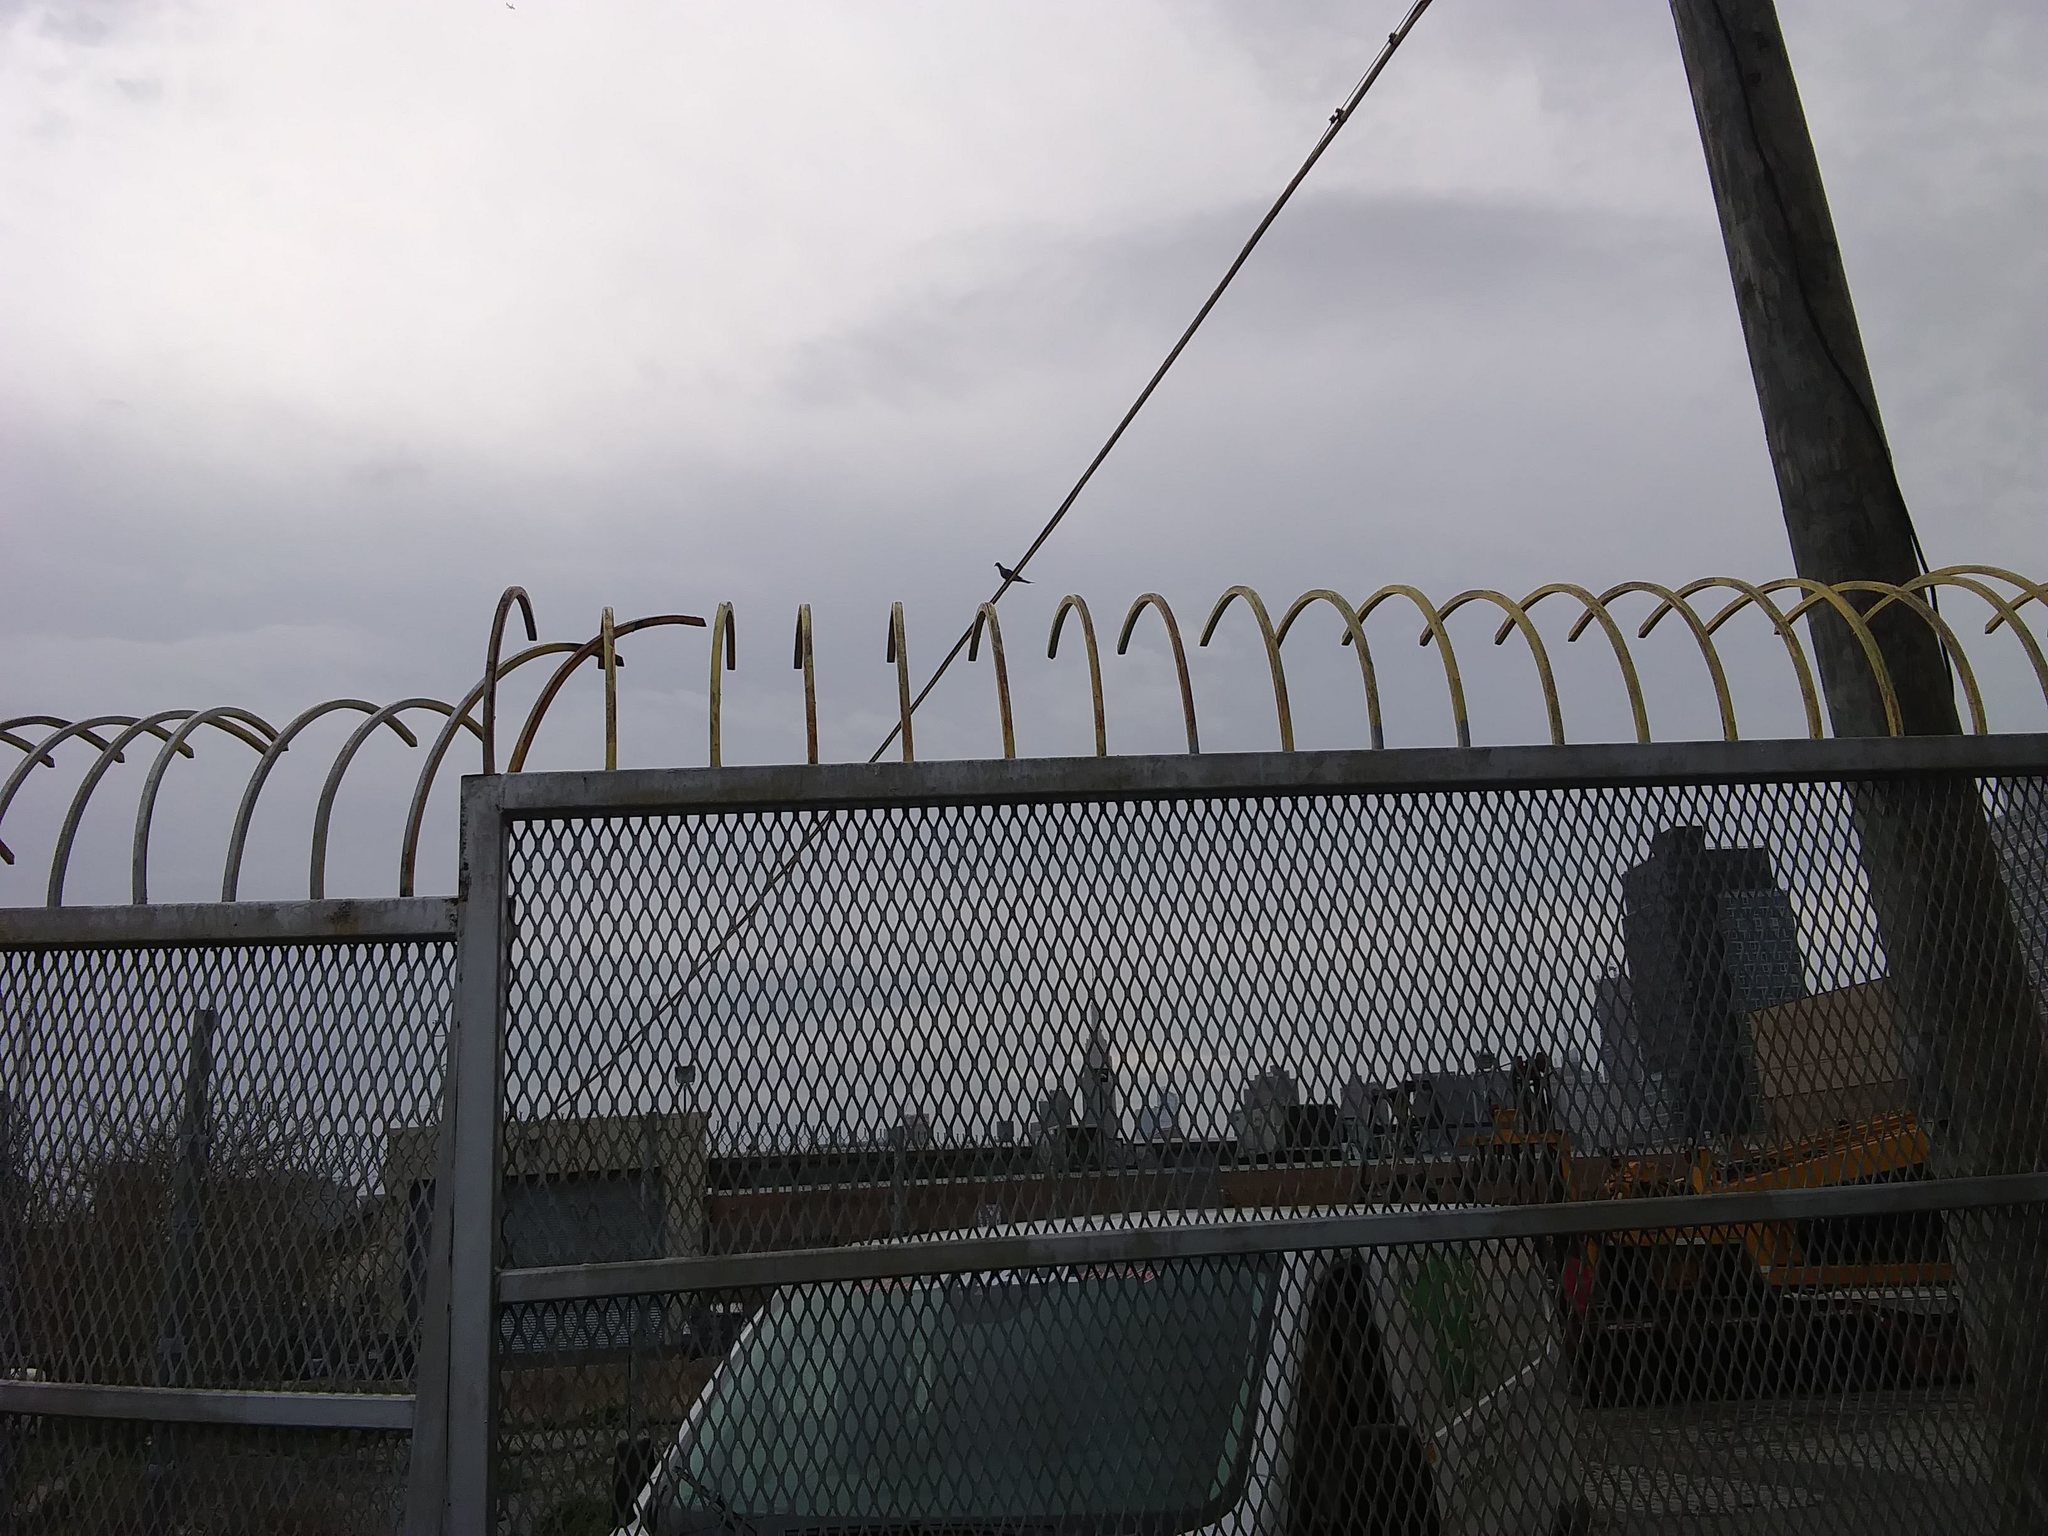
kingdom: Animalia
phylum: Chordata
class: Aves
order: Columbiformes
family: Columbidae
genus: Zenaida
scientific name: Zenaida macroura
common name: Mourning dove
